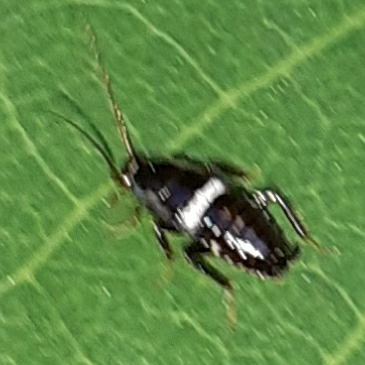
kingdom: Animalia
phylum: Arthropoda
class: Insecta
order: Blattodea
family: Ectobiidae
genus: Planuncus
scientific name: Planuncus vinzi
